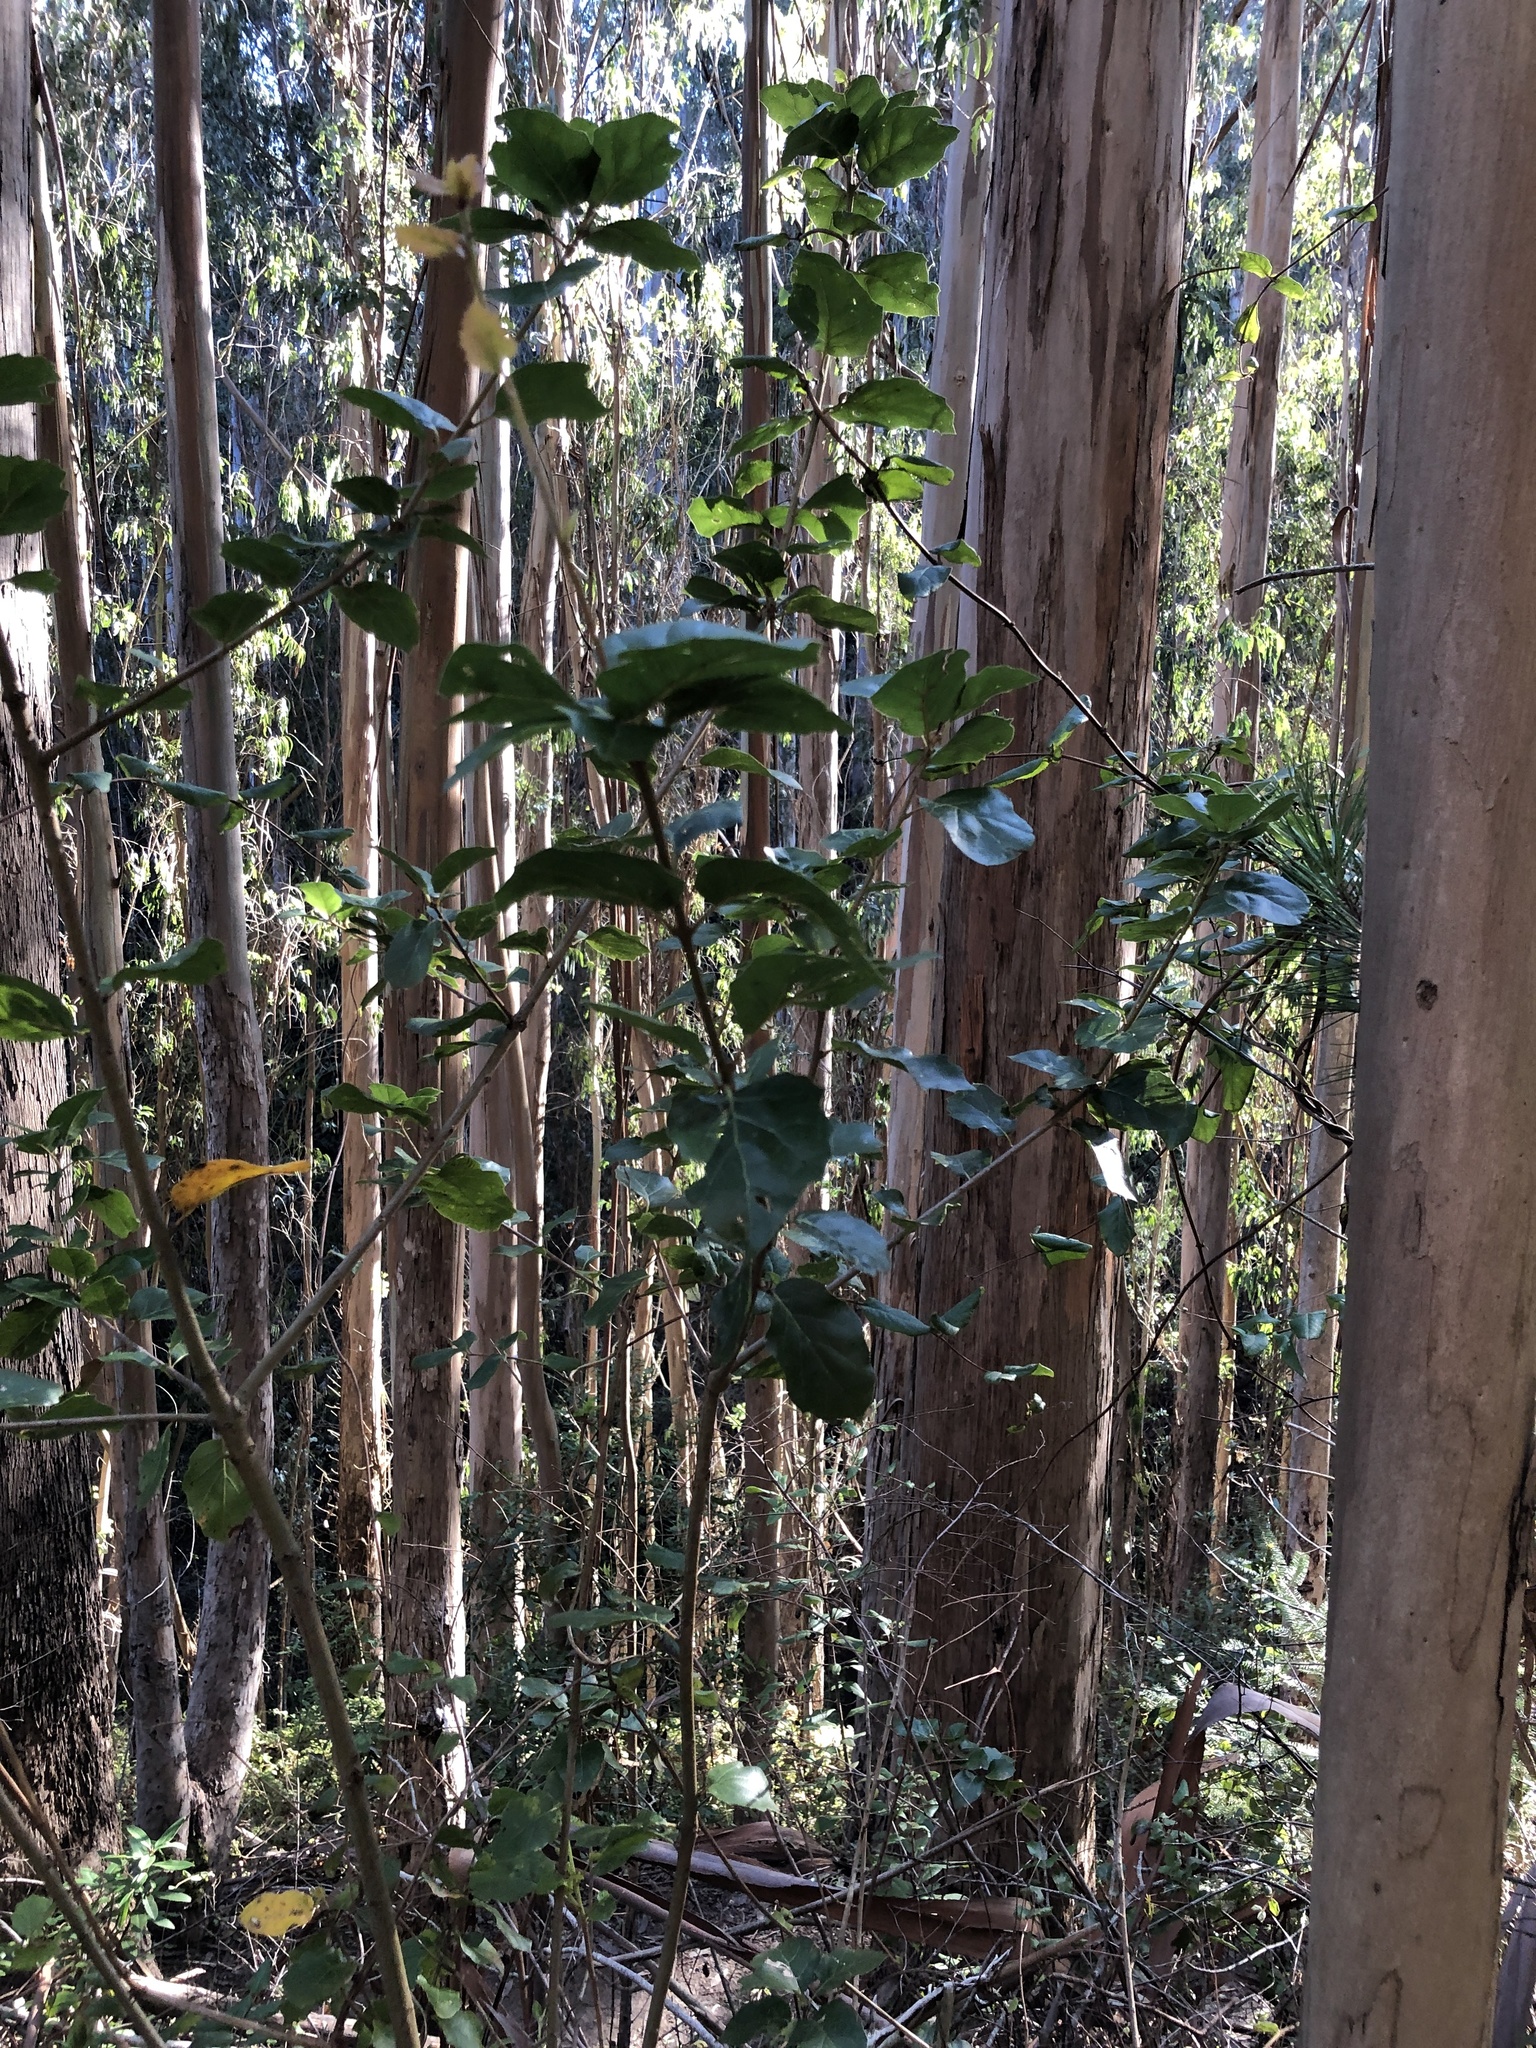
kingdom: Plantae
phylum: Tracheophyta
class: Magnoliopsida
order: Fagales
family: Fagaceae
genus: Quercus
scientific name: Quercus agrifolia
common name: California live oak
